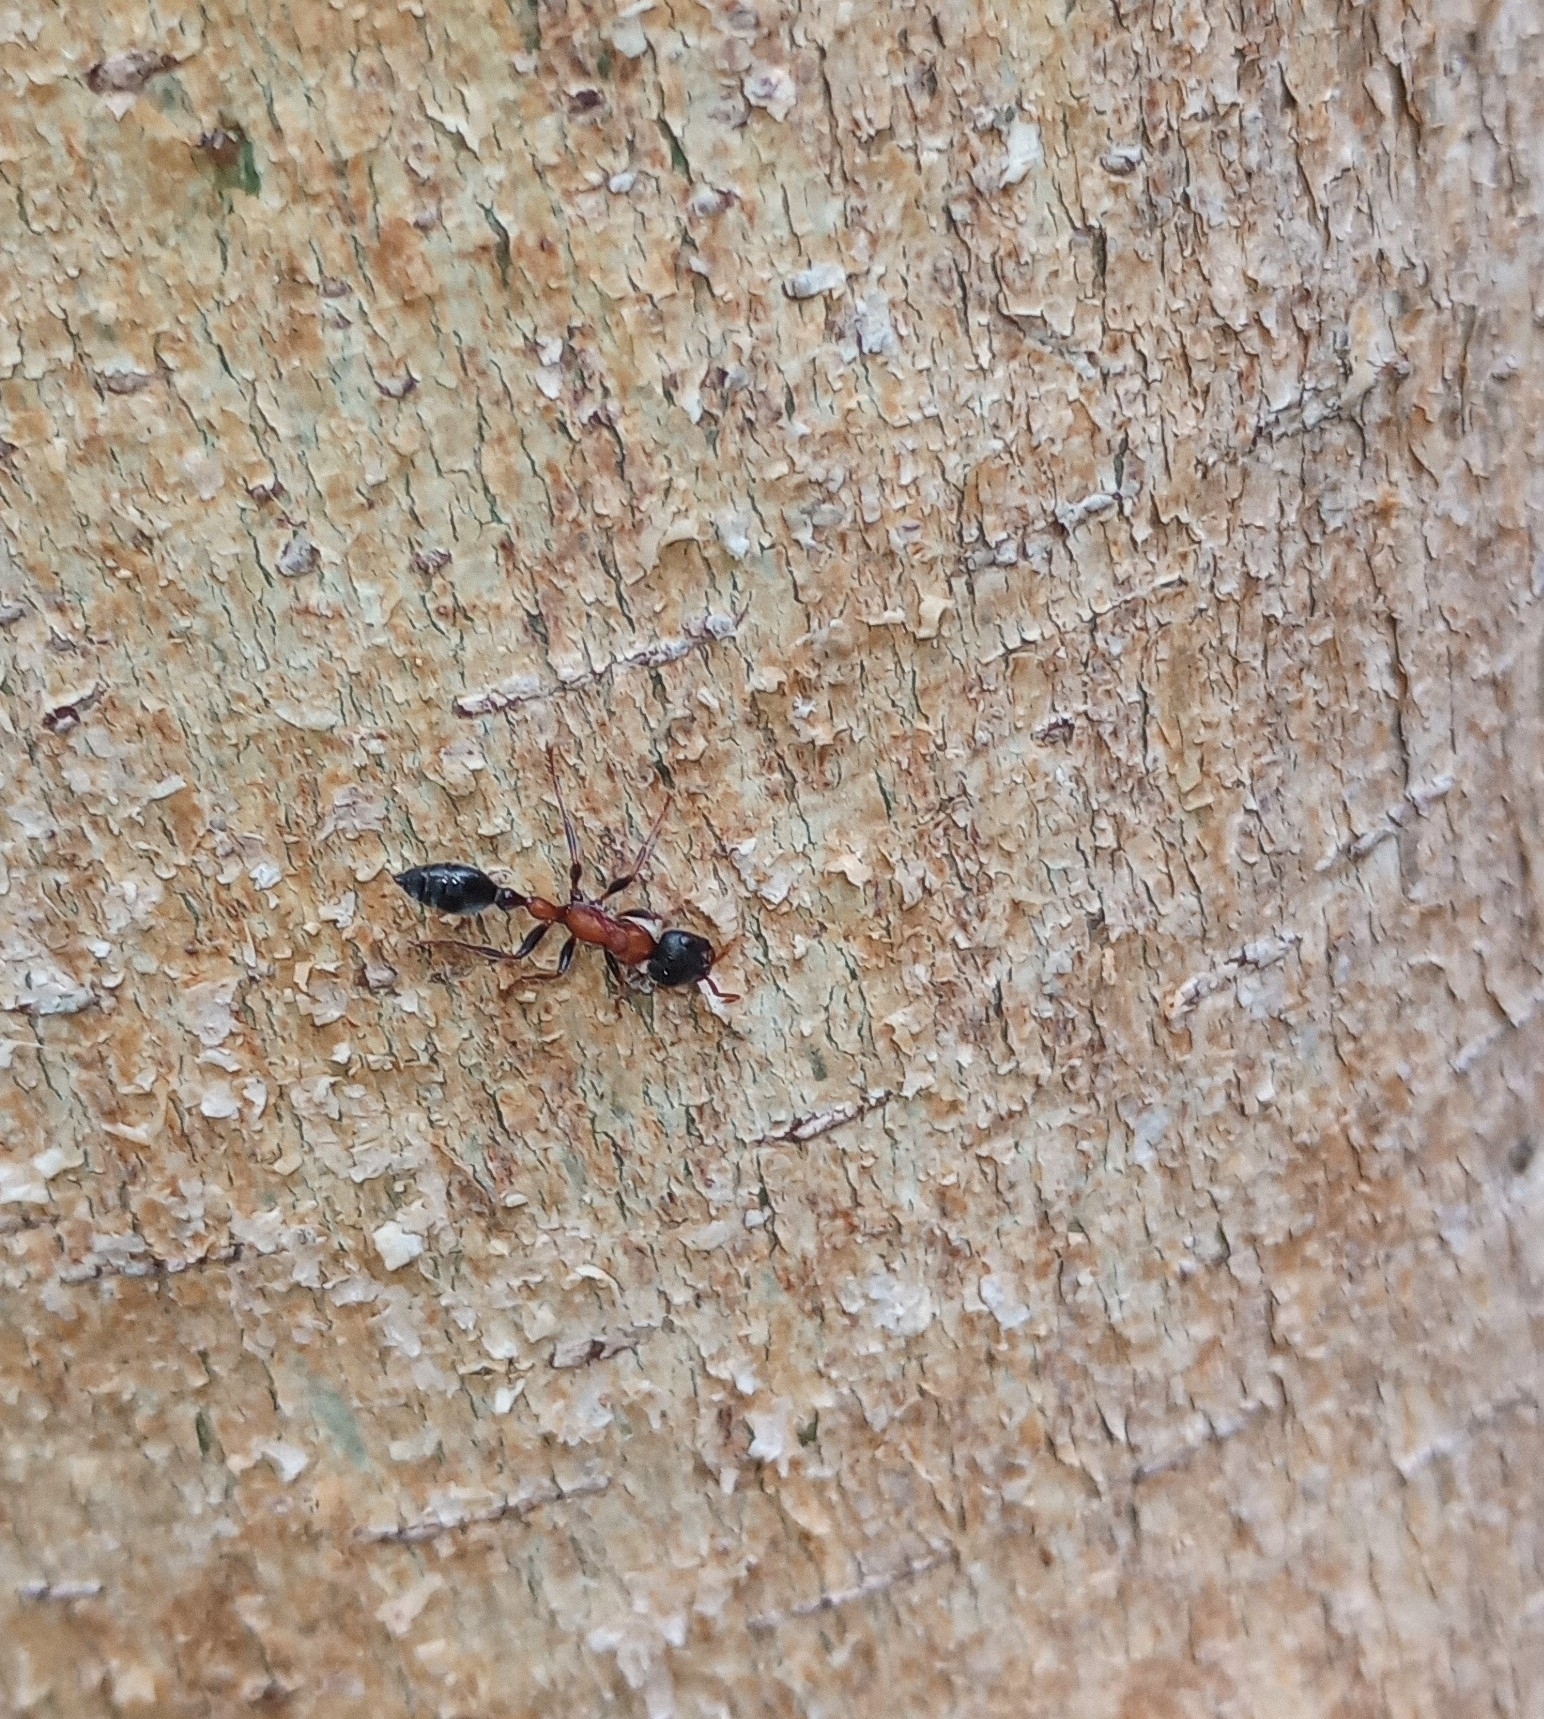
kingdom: Animalia
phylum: Arthropoda
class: Insecta
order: Hymenoptera
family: Formicidae
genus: Tetraponera
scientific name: Tetraponera rufonigra
